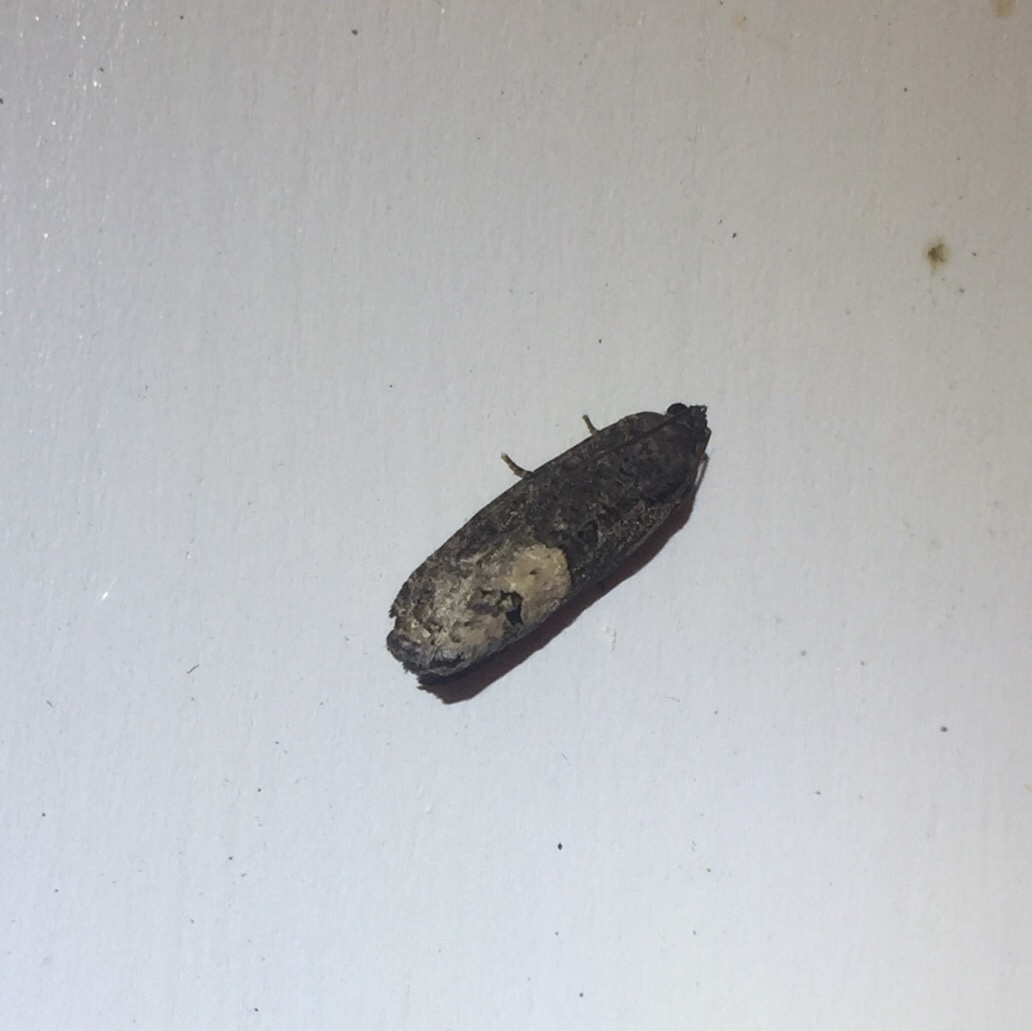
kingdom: Animalia
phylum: Arthropoda
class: Insecta
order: Lepidoptera
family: Tortricidae
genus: Ecdytolopha
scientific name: Ecdytolopha insiticiana
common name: Locust twig borer moth
